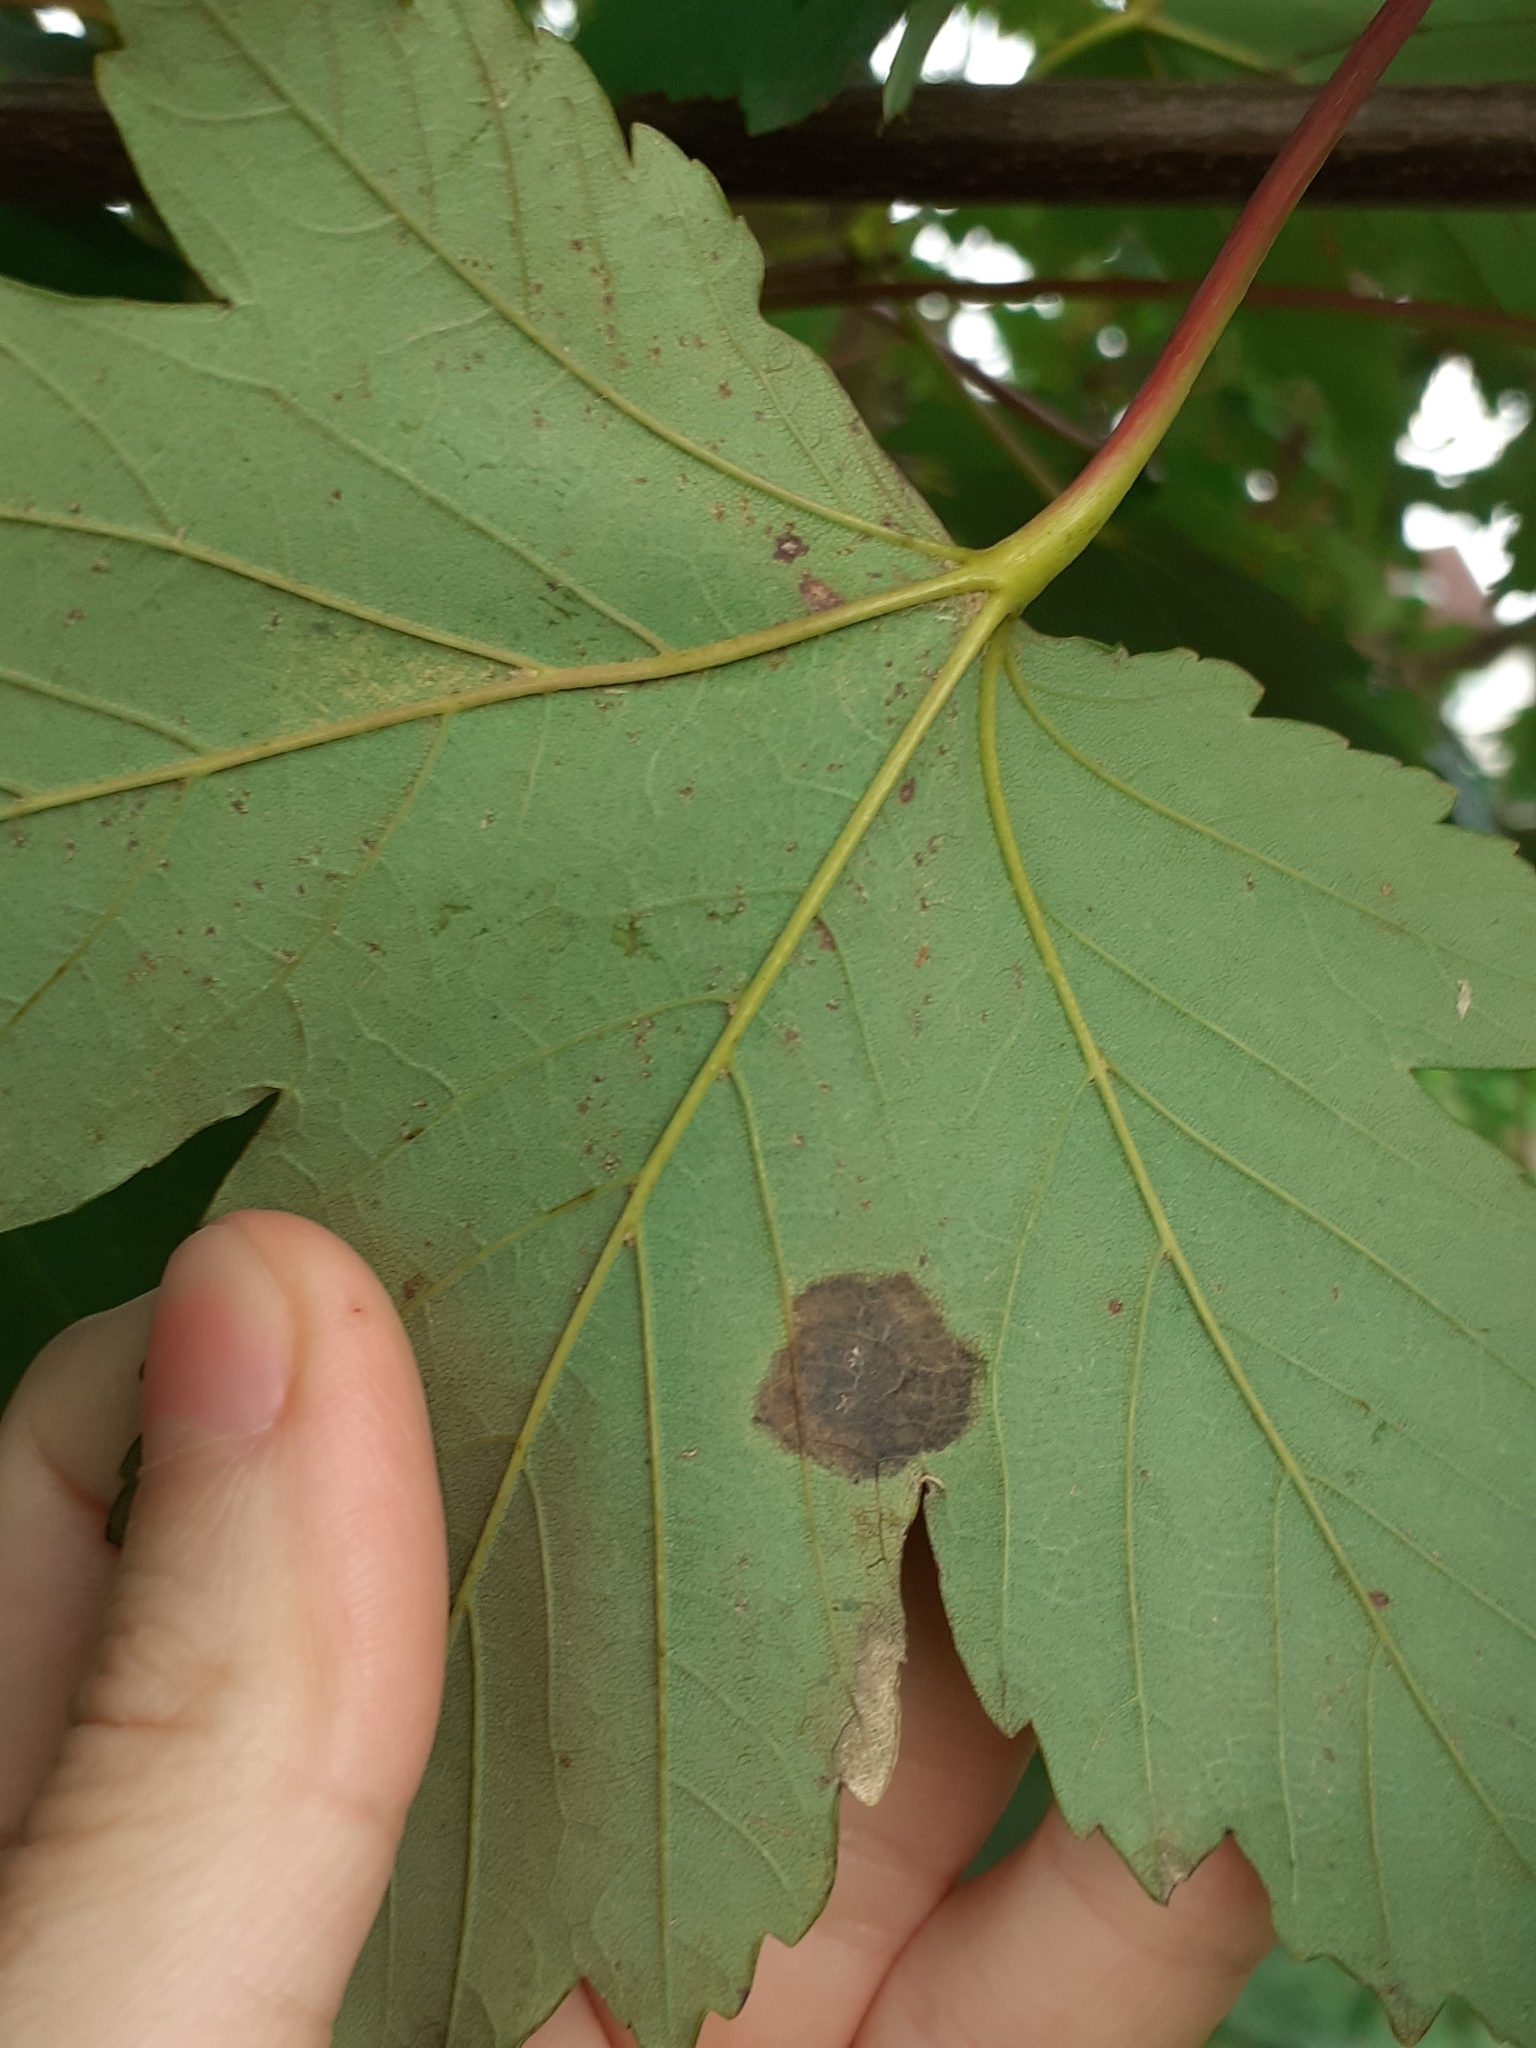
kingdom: Fungi
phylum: Ascomycota
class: Leotiomycetes
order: Rhytismatales
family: Rhytismataceae
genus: Rhytisma
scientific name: Rhytisma acerinum
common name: European tar spot
